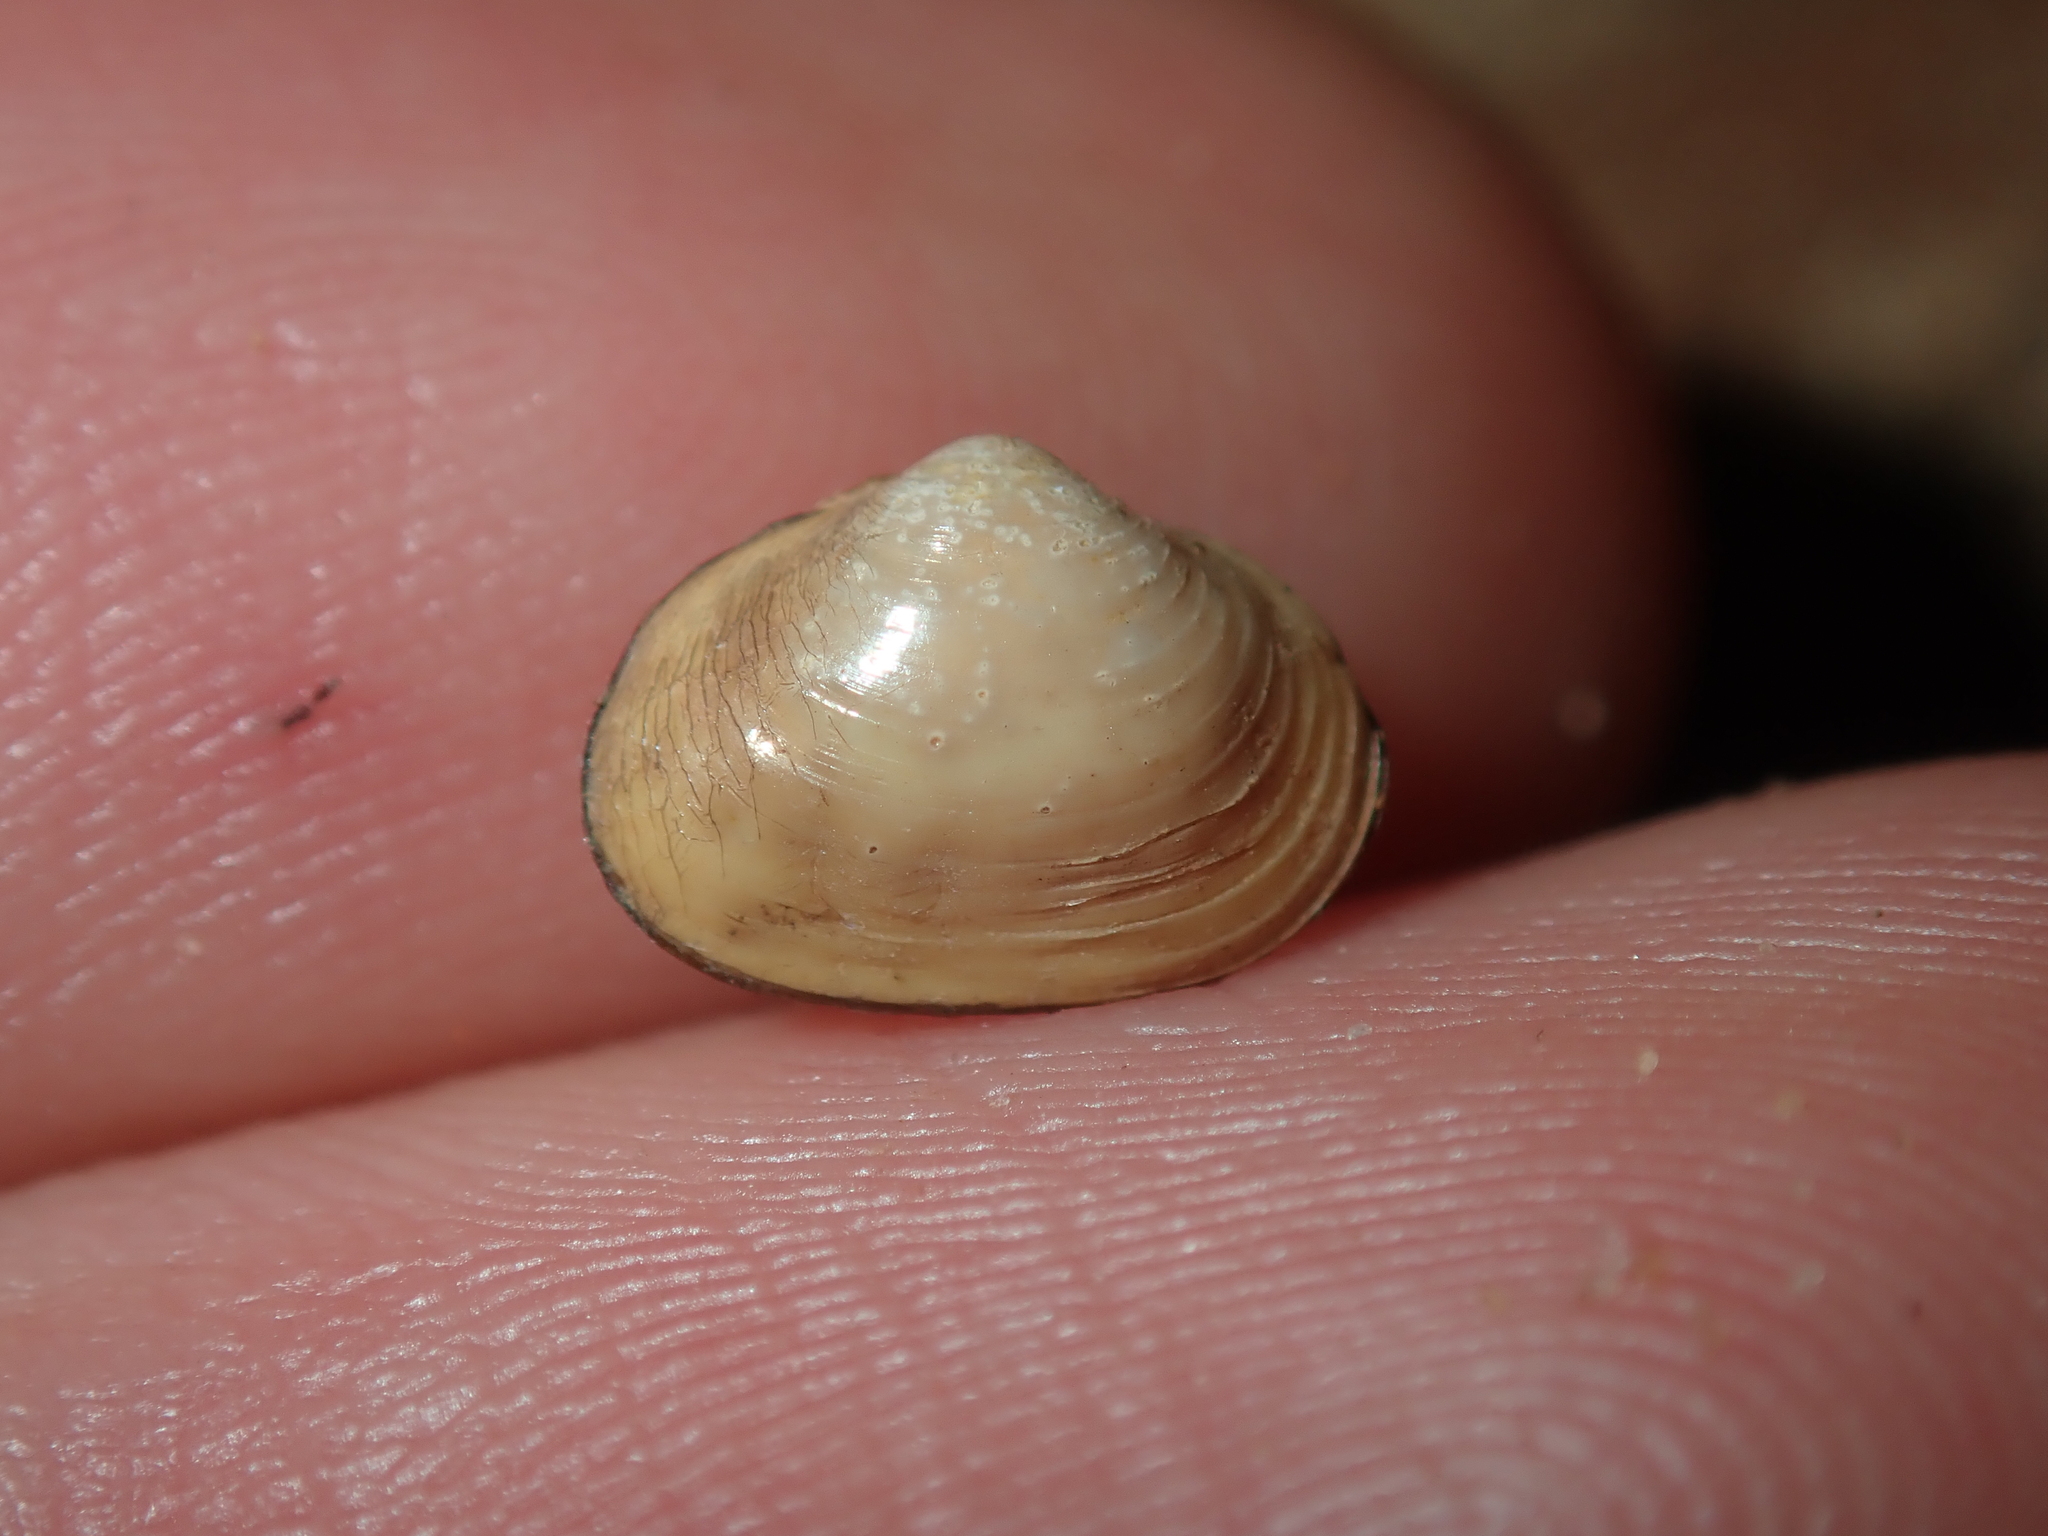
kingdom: Animalia
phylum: Mollusca
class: Bivalvia
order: Venerida
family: Cyrenidae
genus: Corbicula
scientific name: Corbicula australis
